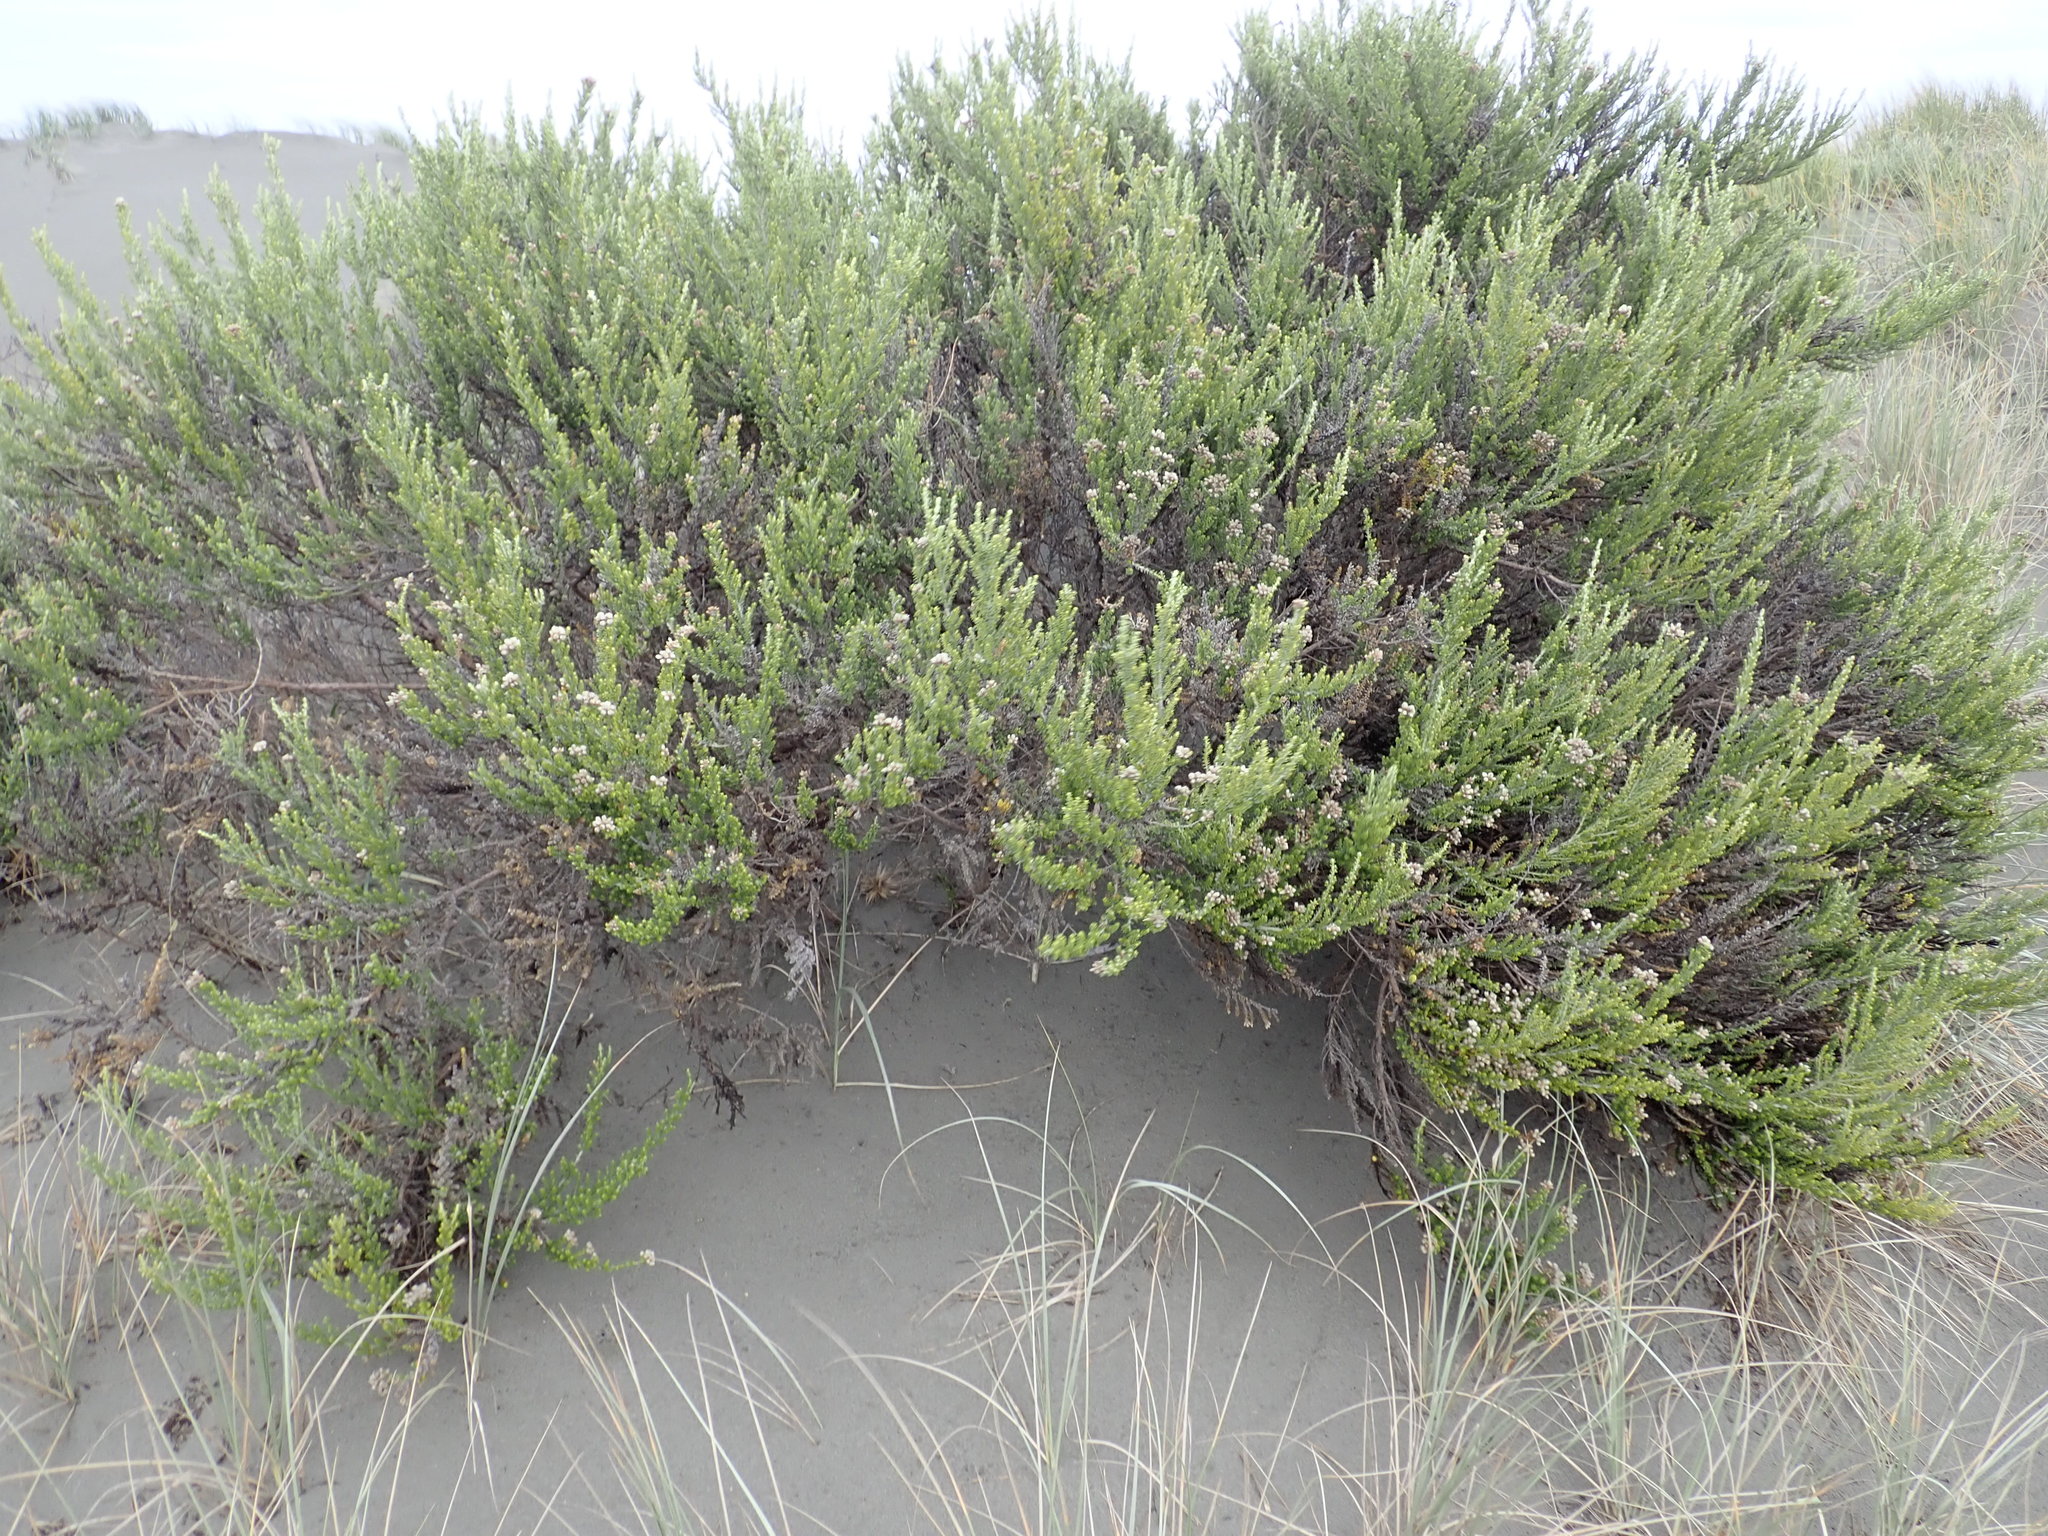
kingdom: Plantae
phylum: Tracheophyta
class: Magnoliopsida
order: Asterales
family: Asteraceae
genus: Ozothamnus
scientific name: Ozothamnus leptophyllus
